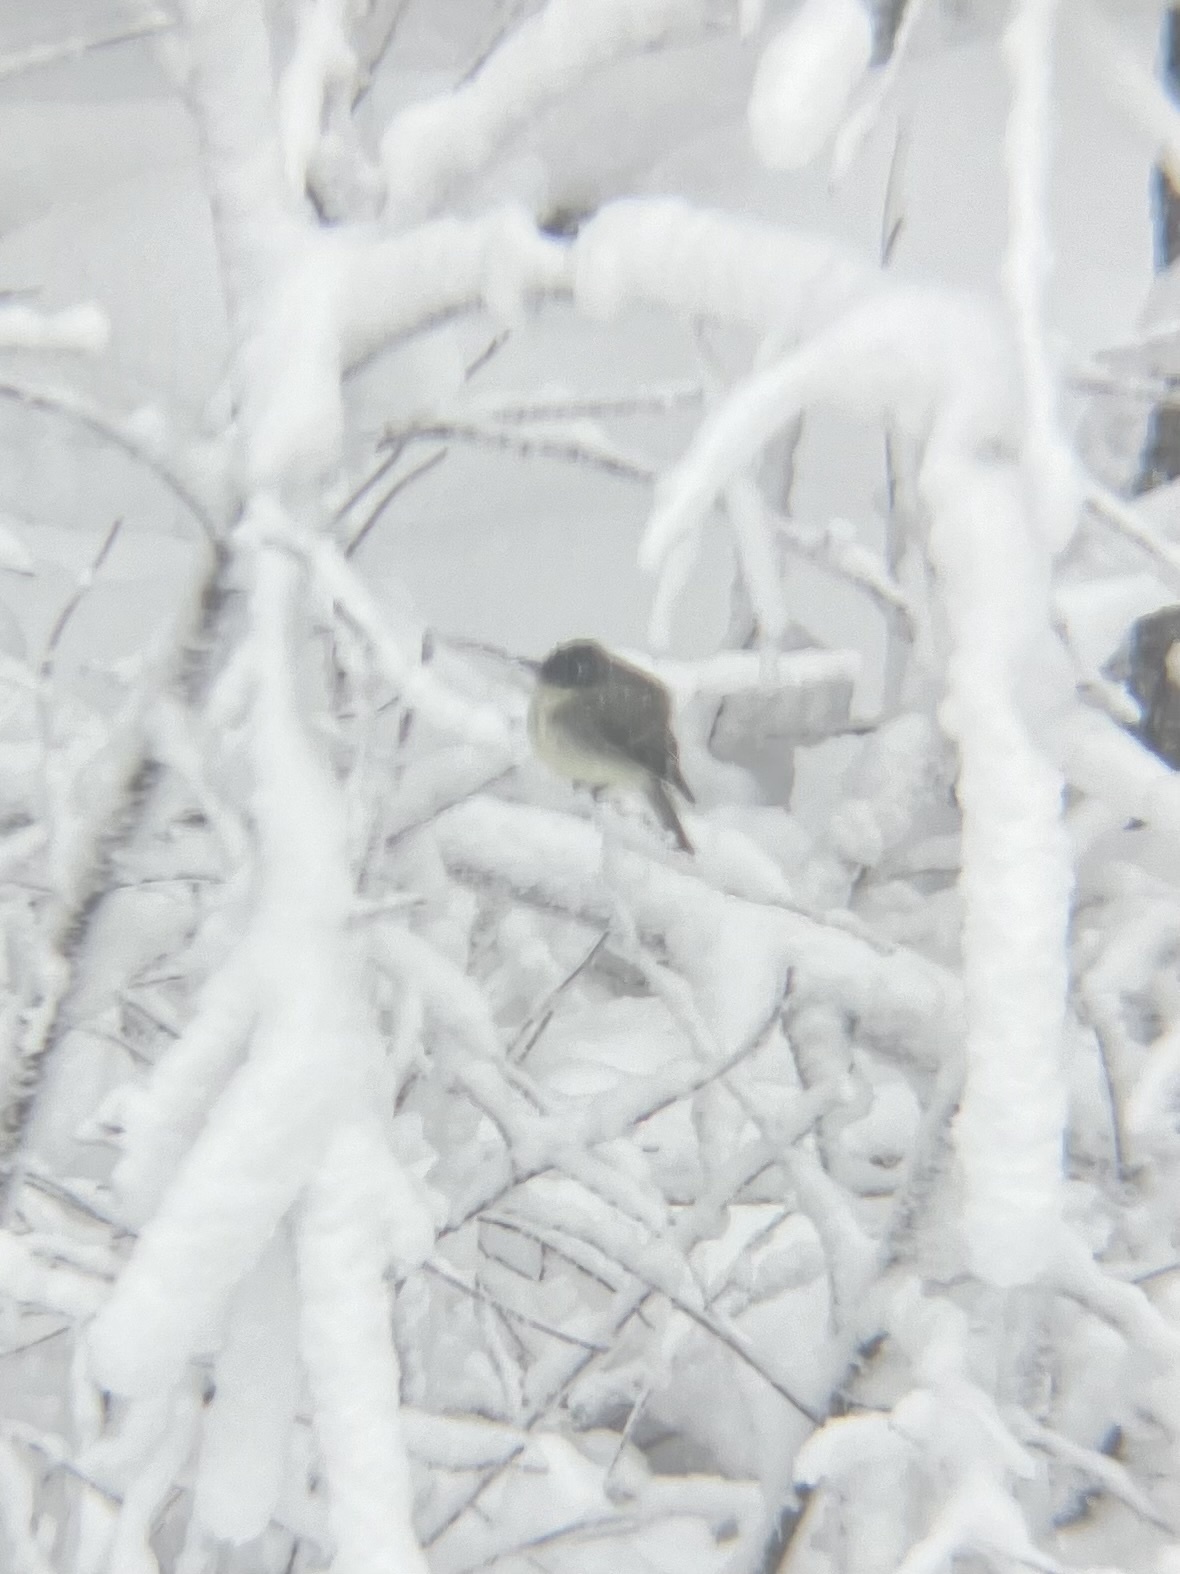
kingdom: Animalia
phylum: Chordata
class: Aves
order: Passeriformes
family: Tyrannidae
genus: Sayornis
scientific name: Sayornis phoebe
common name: Eastern phoebe
